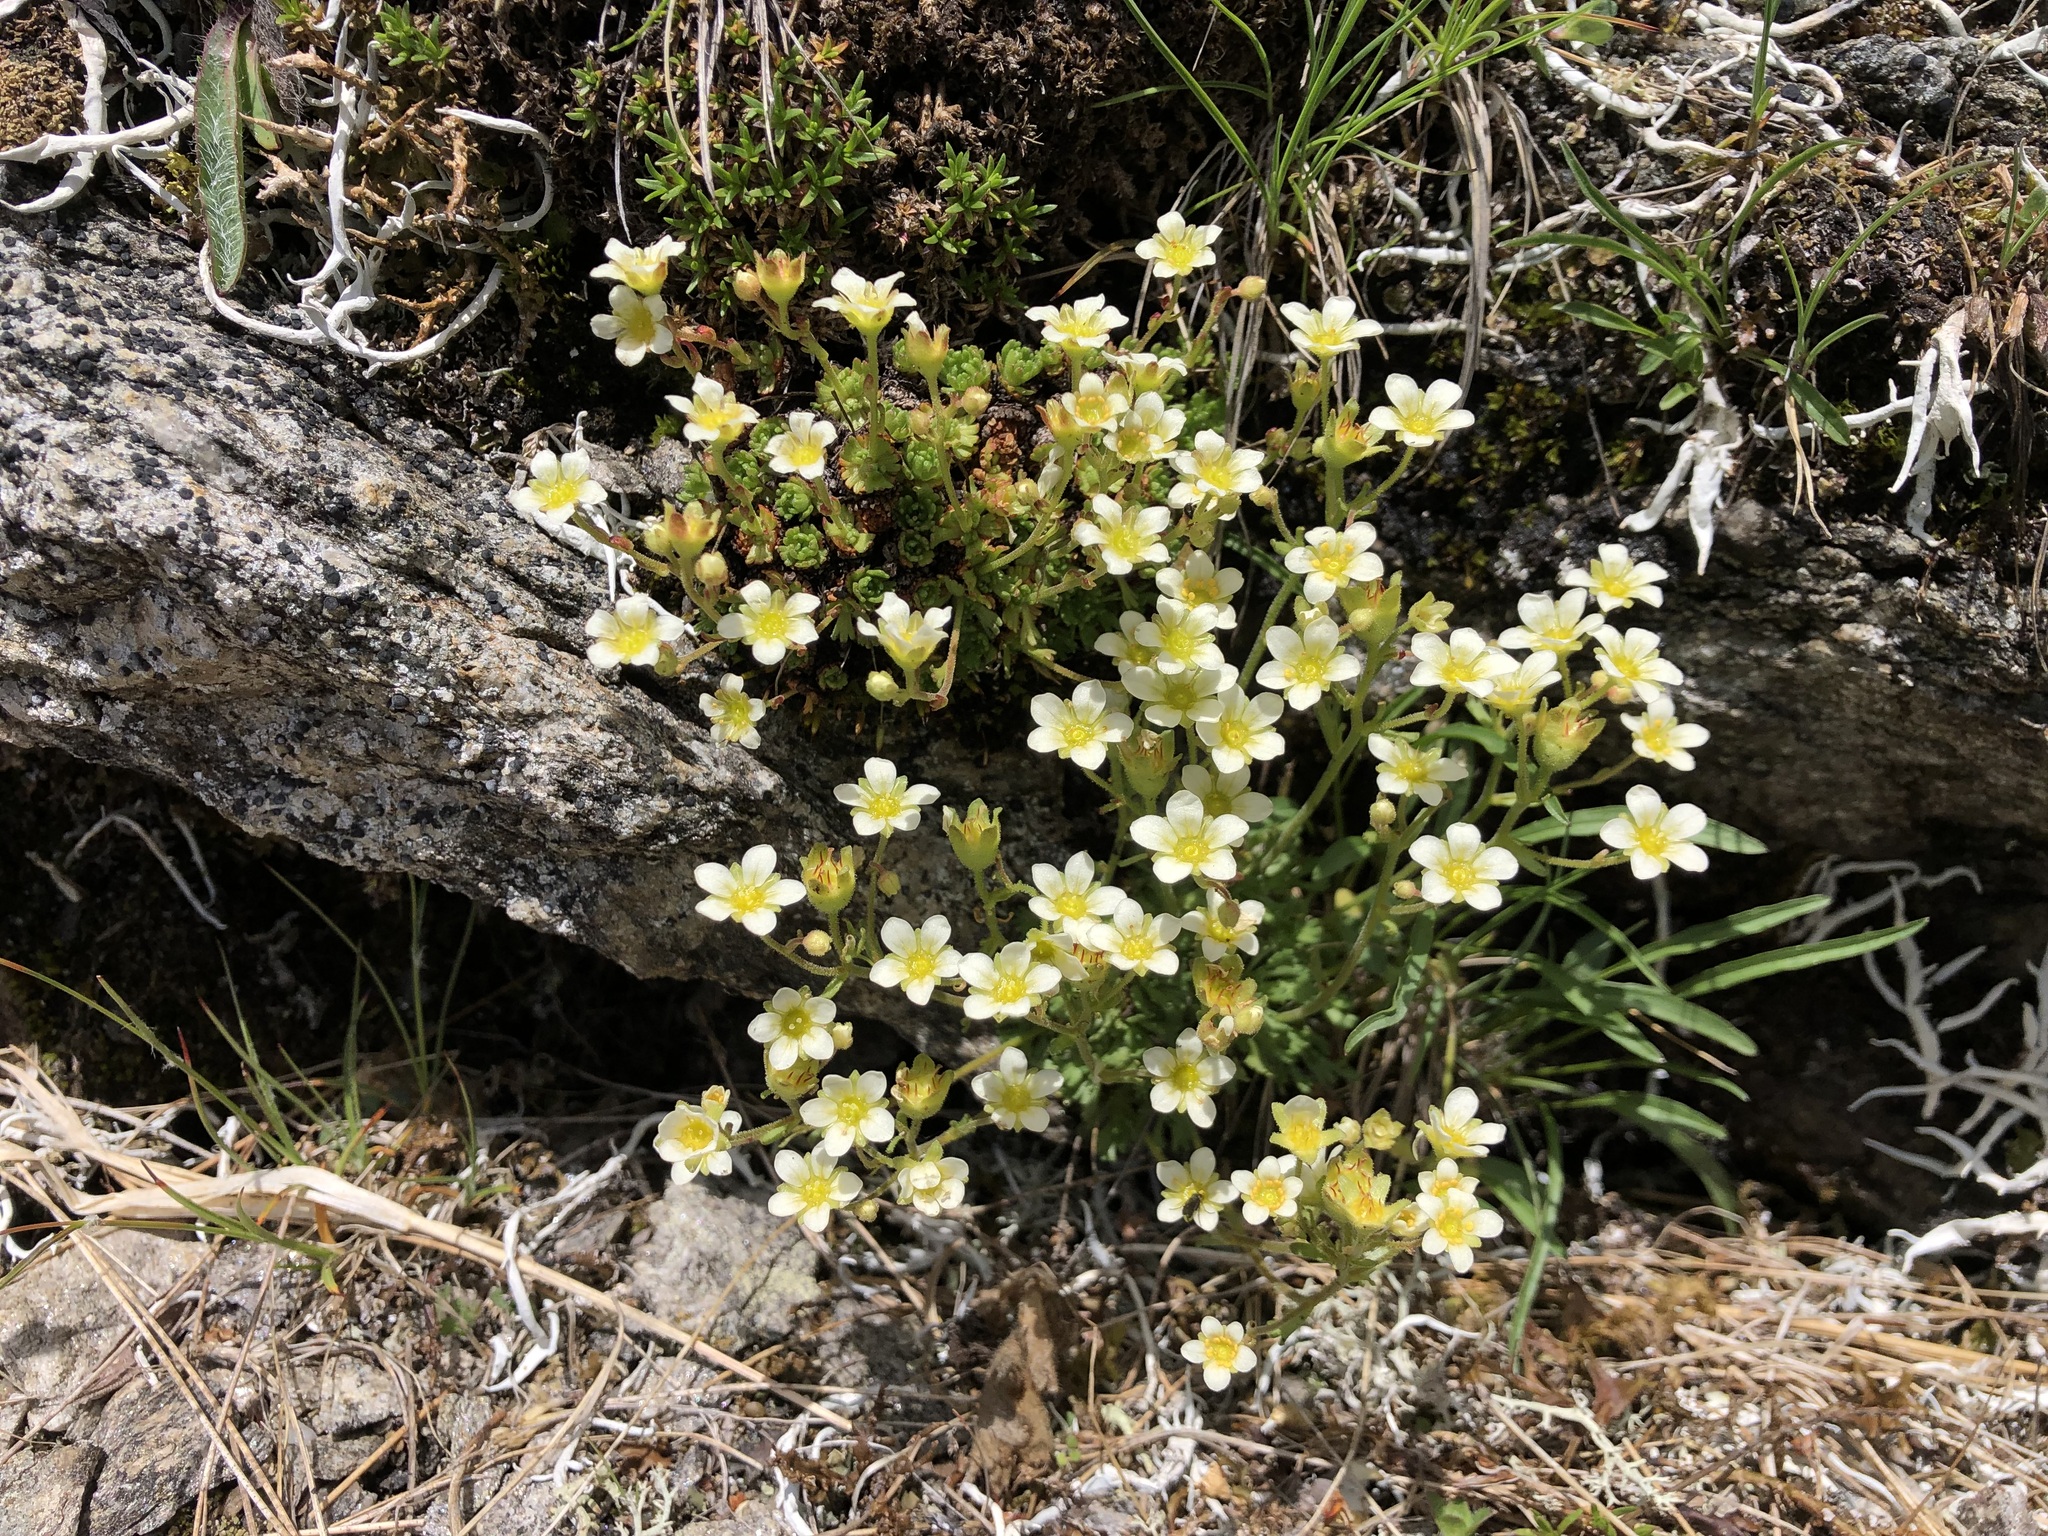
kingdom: Plantae
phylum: Tracheophyta
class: Magnoliopsida
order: Saxifragales
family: Saxifragaceae
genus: Saxifraga
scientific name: Saxifraga exarata
